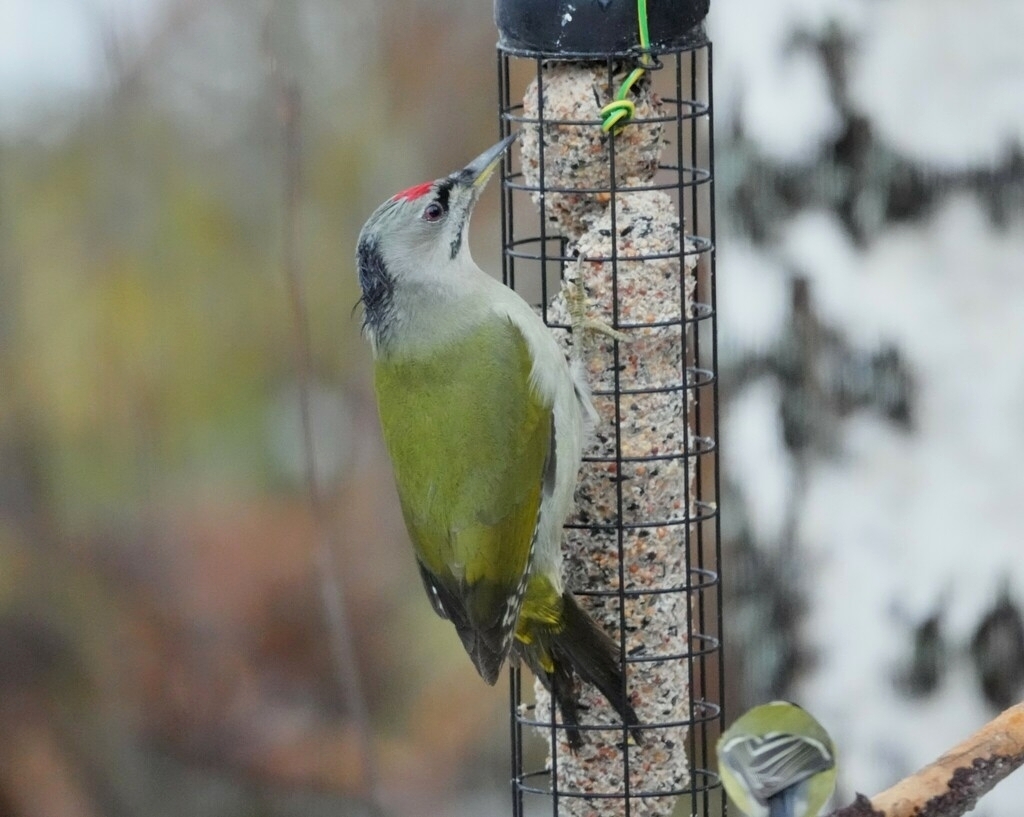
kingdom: Animalia
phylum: Chordata
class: Aves
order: Piciformes
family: Picidae
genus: Picus
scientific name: Picus canus
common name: Grey-headed woodpecker
